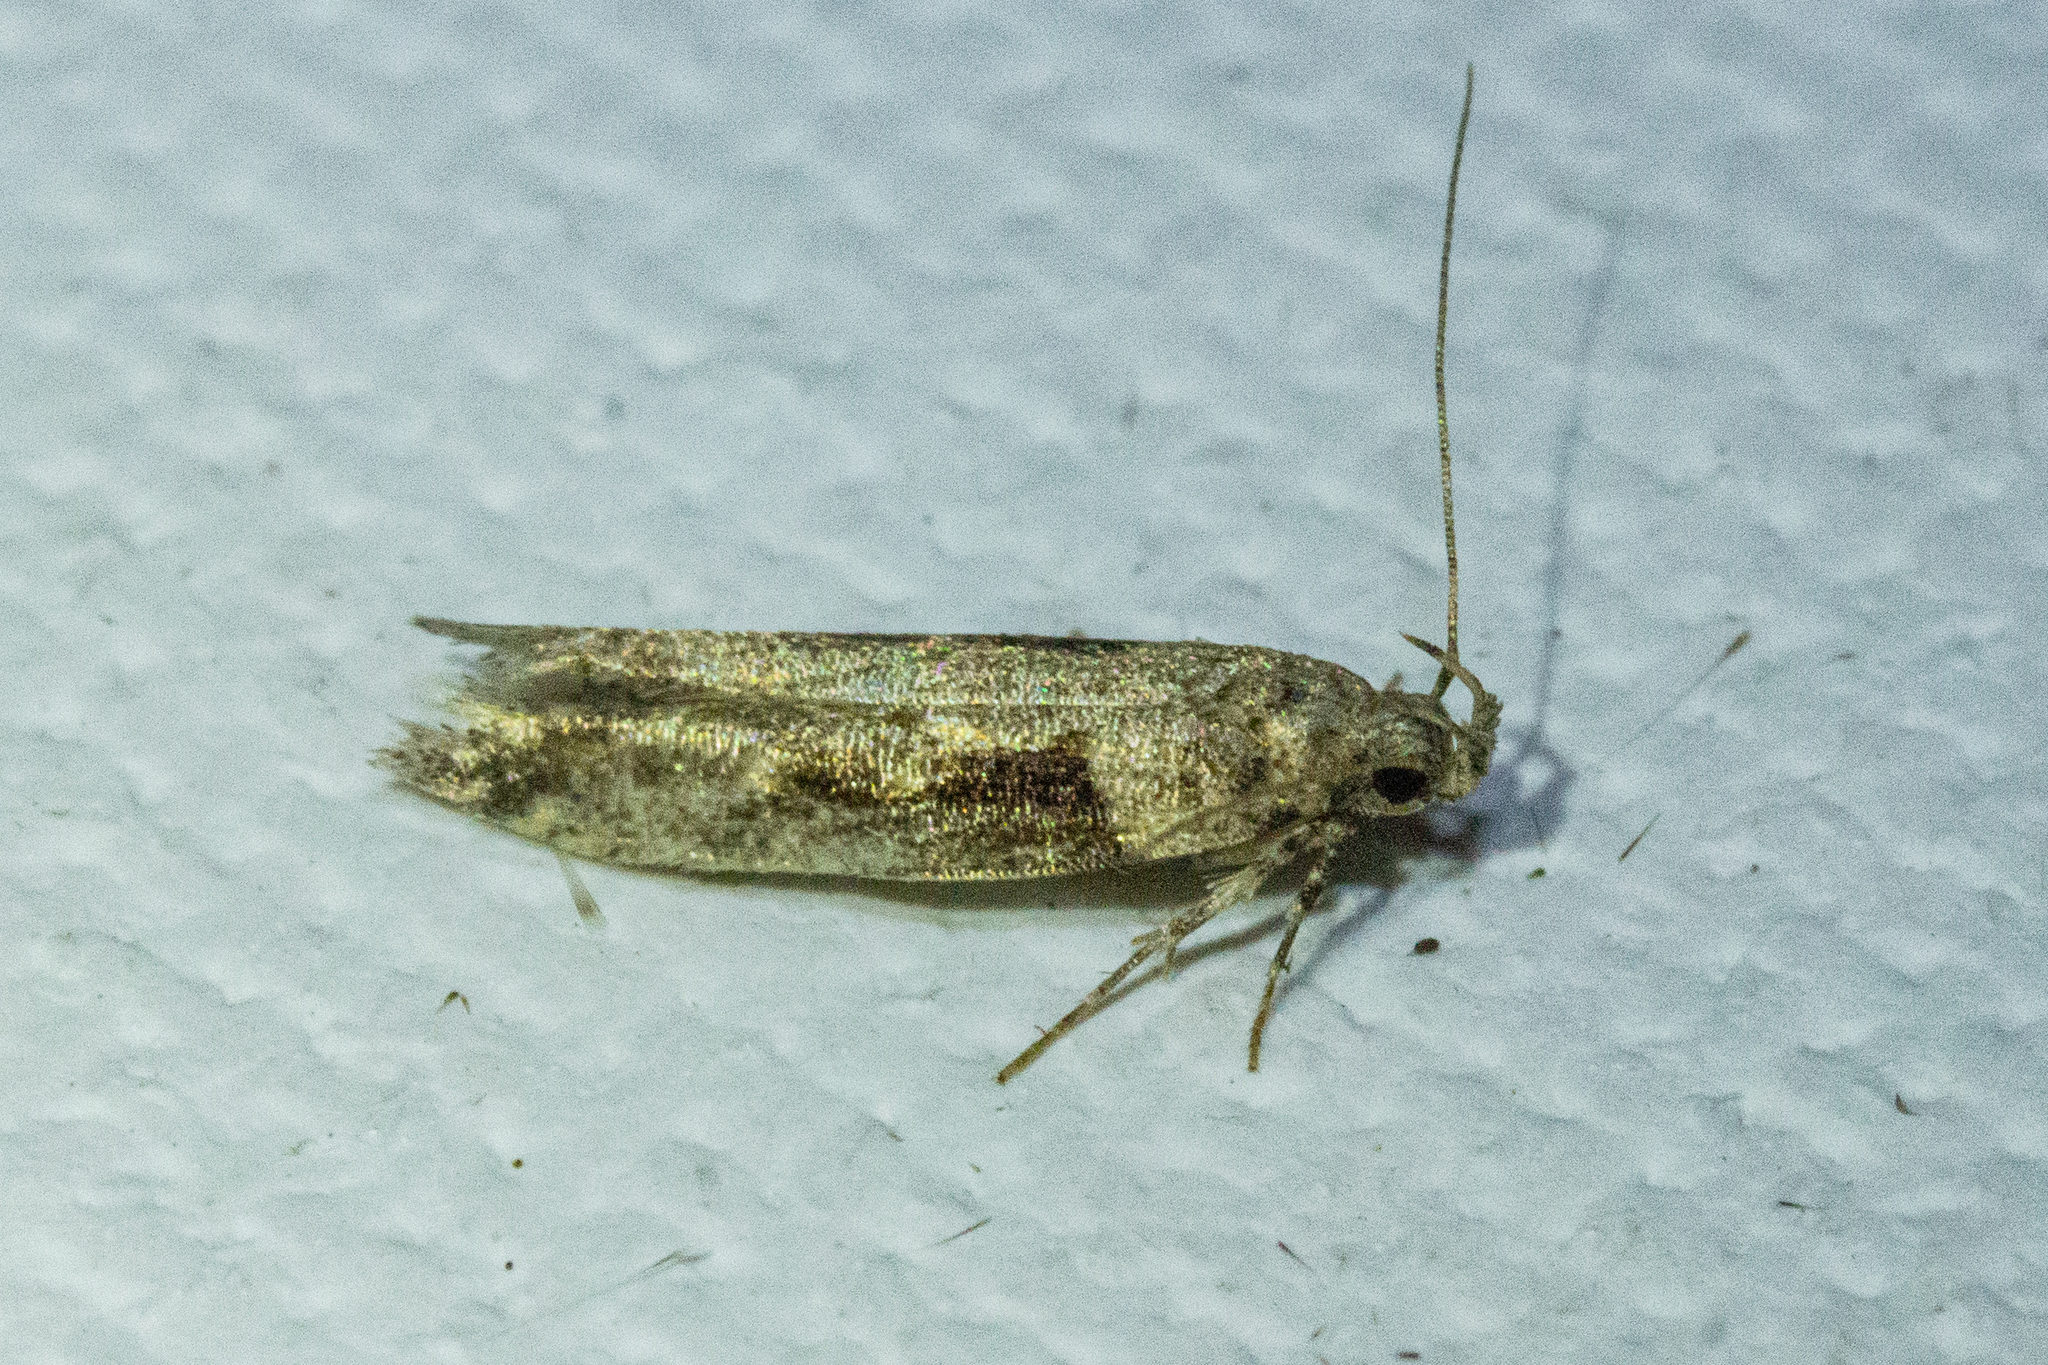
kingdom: Animalia
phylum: Arthropoda
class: Insecta
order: Lepidoptera
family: Gelechiidae
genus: Symmetrischema
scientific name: Symmetrischema tangolias
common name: Moth
